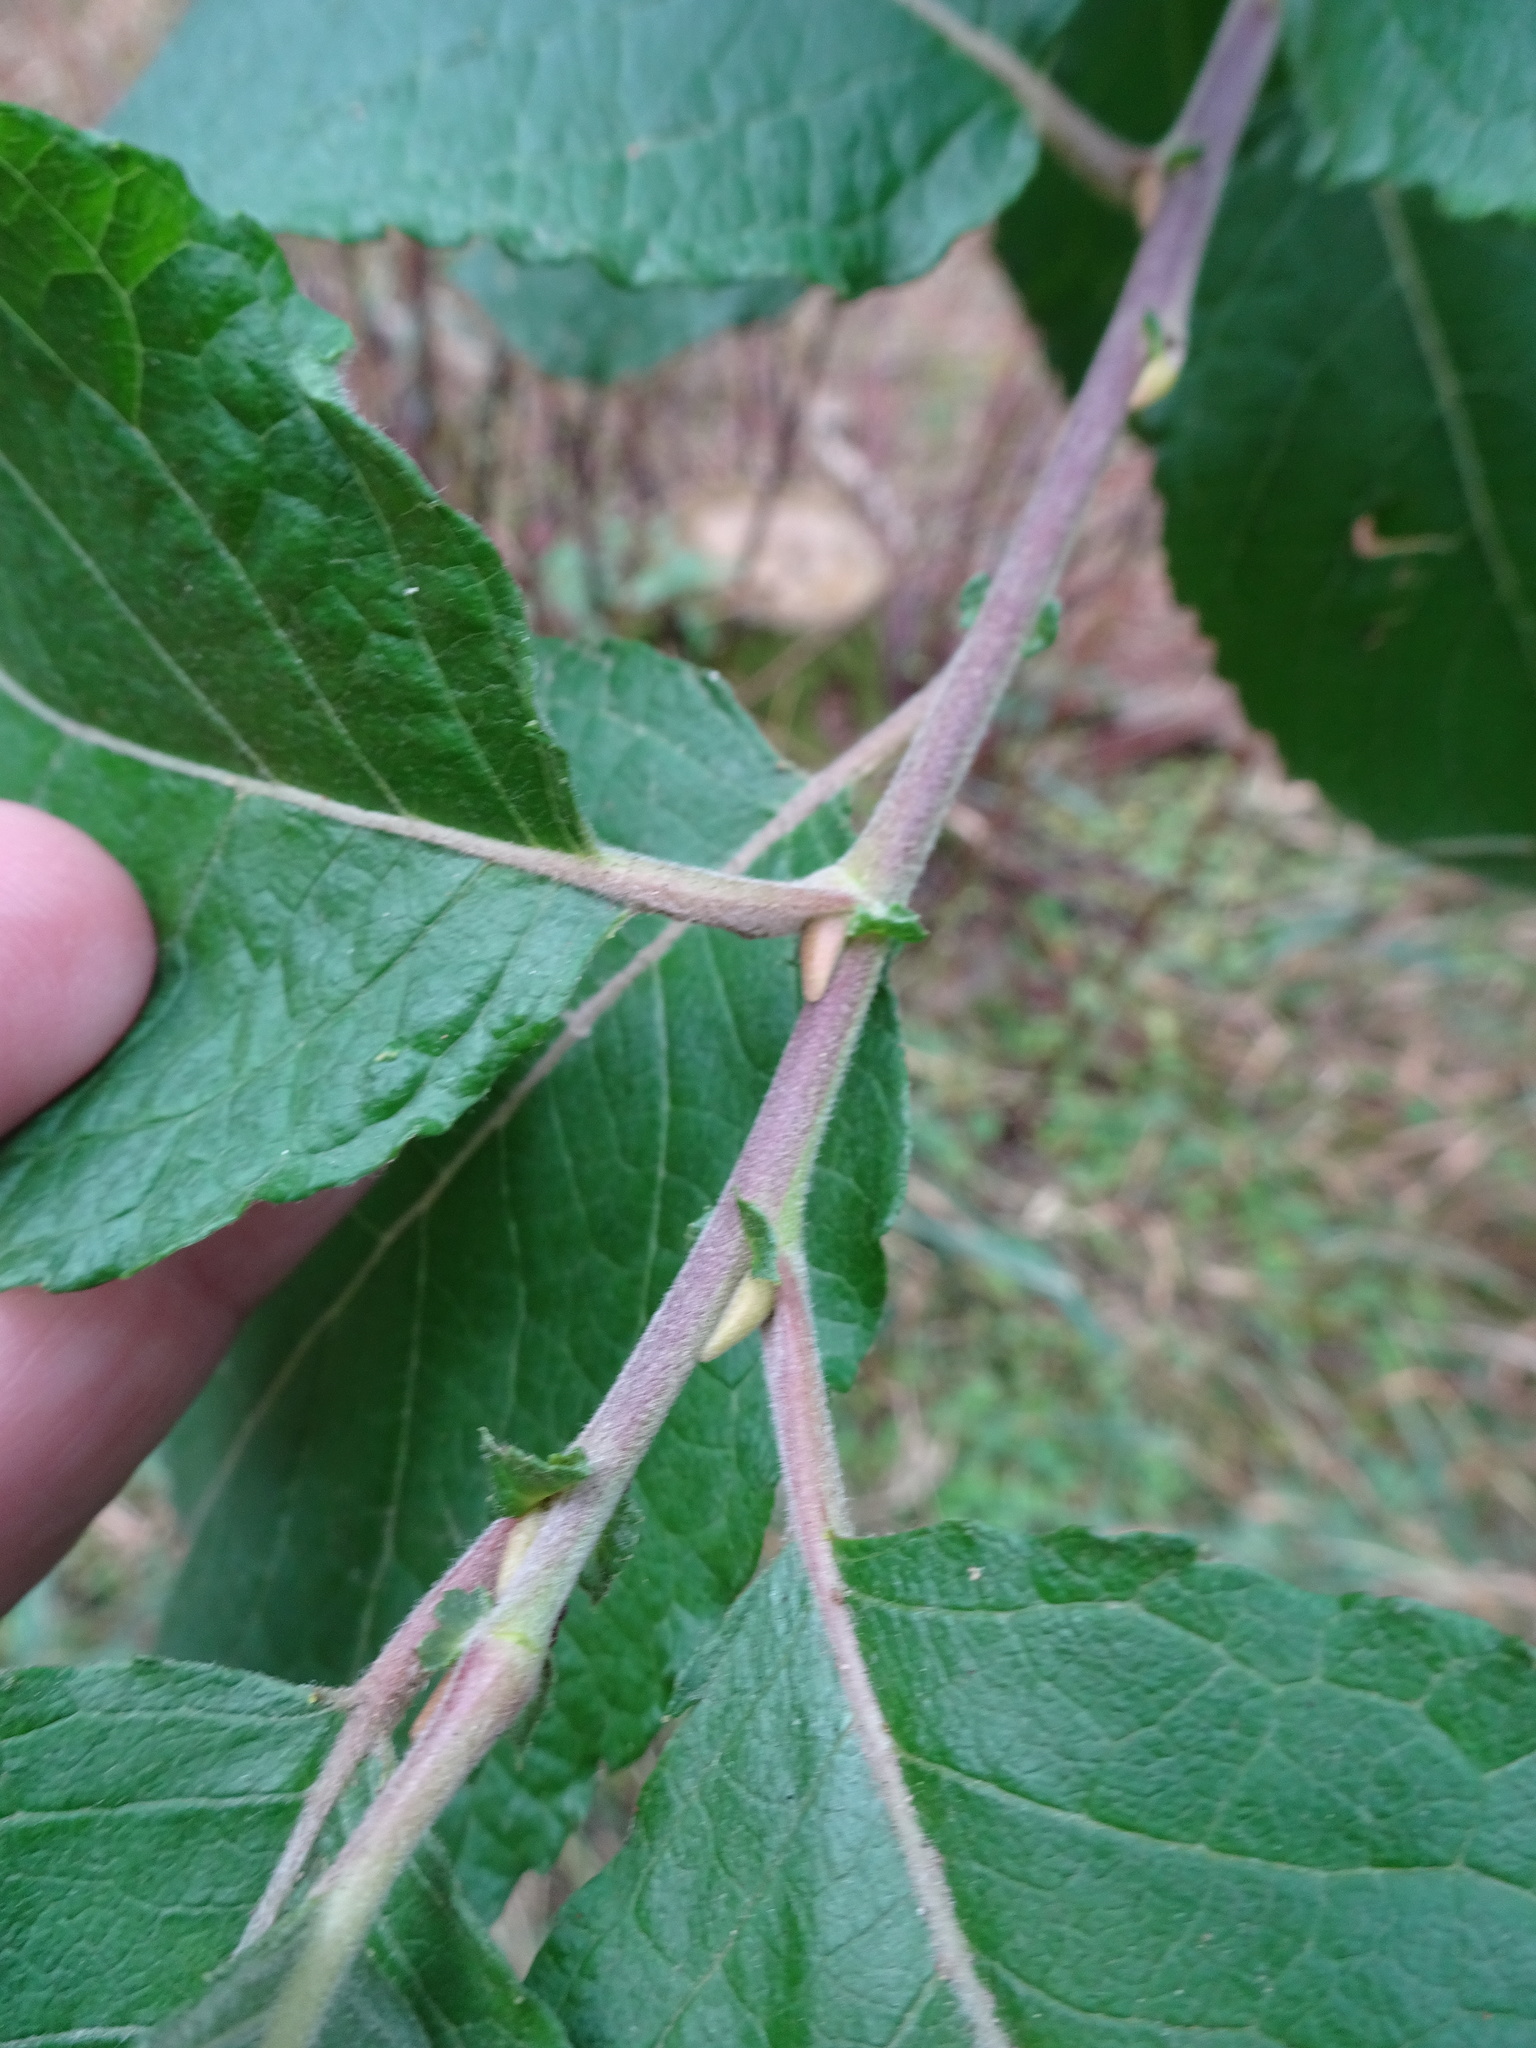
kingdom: Plantae
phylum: Tracheophyta
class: Magnoliopsida
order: Malpighiales
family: Salicaceae
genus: Salix
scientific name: Salix caprea
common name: Goat willow
